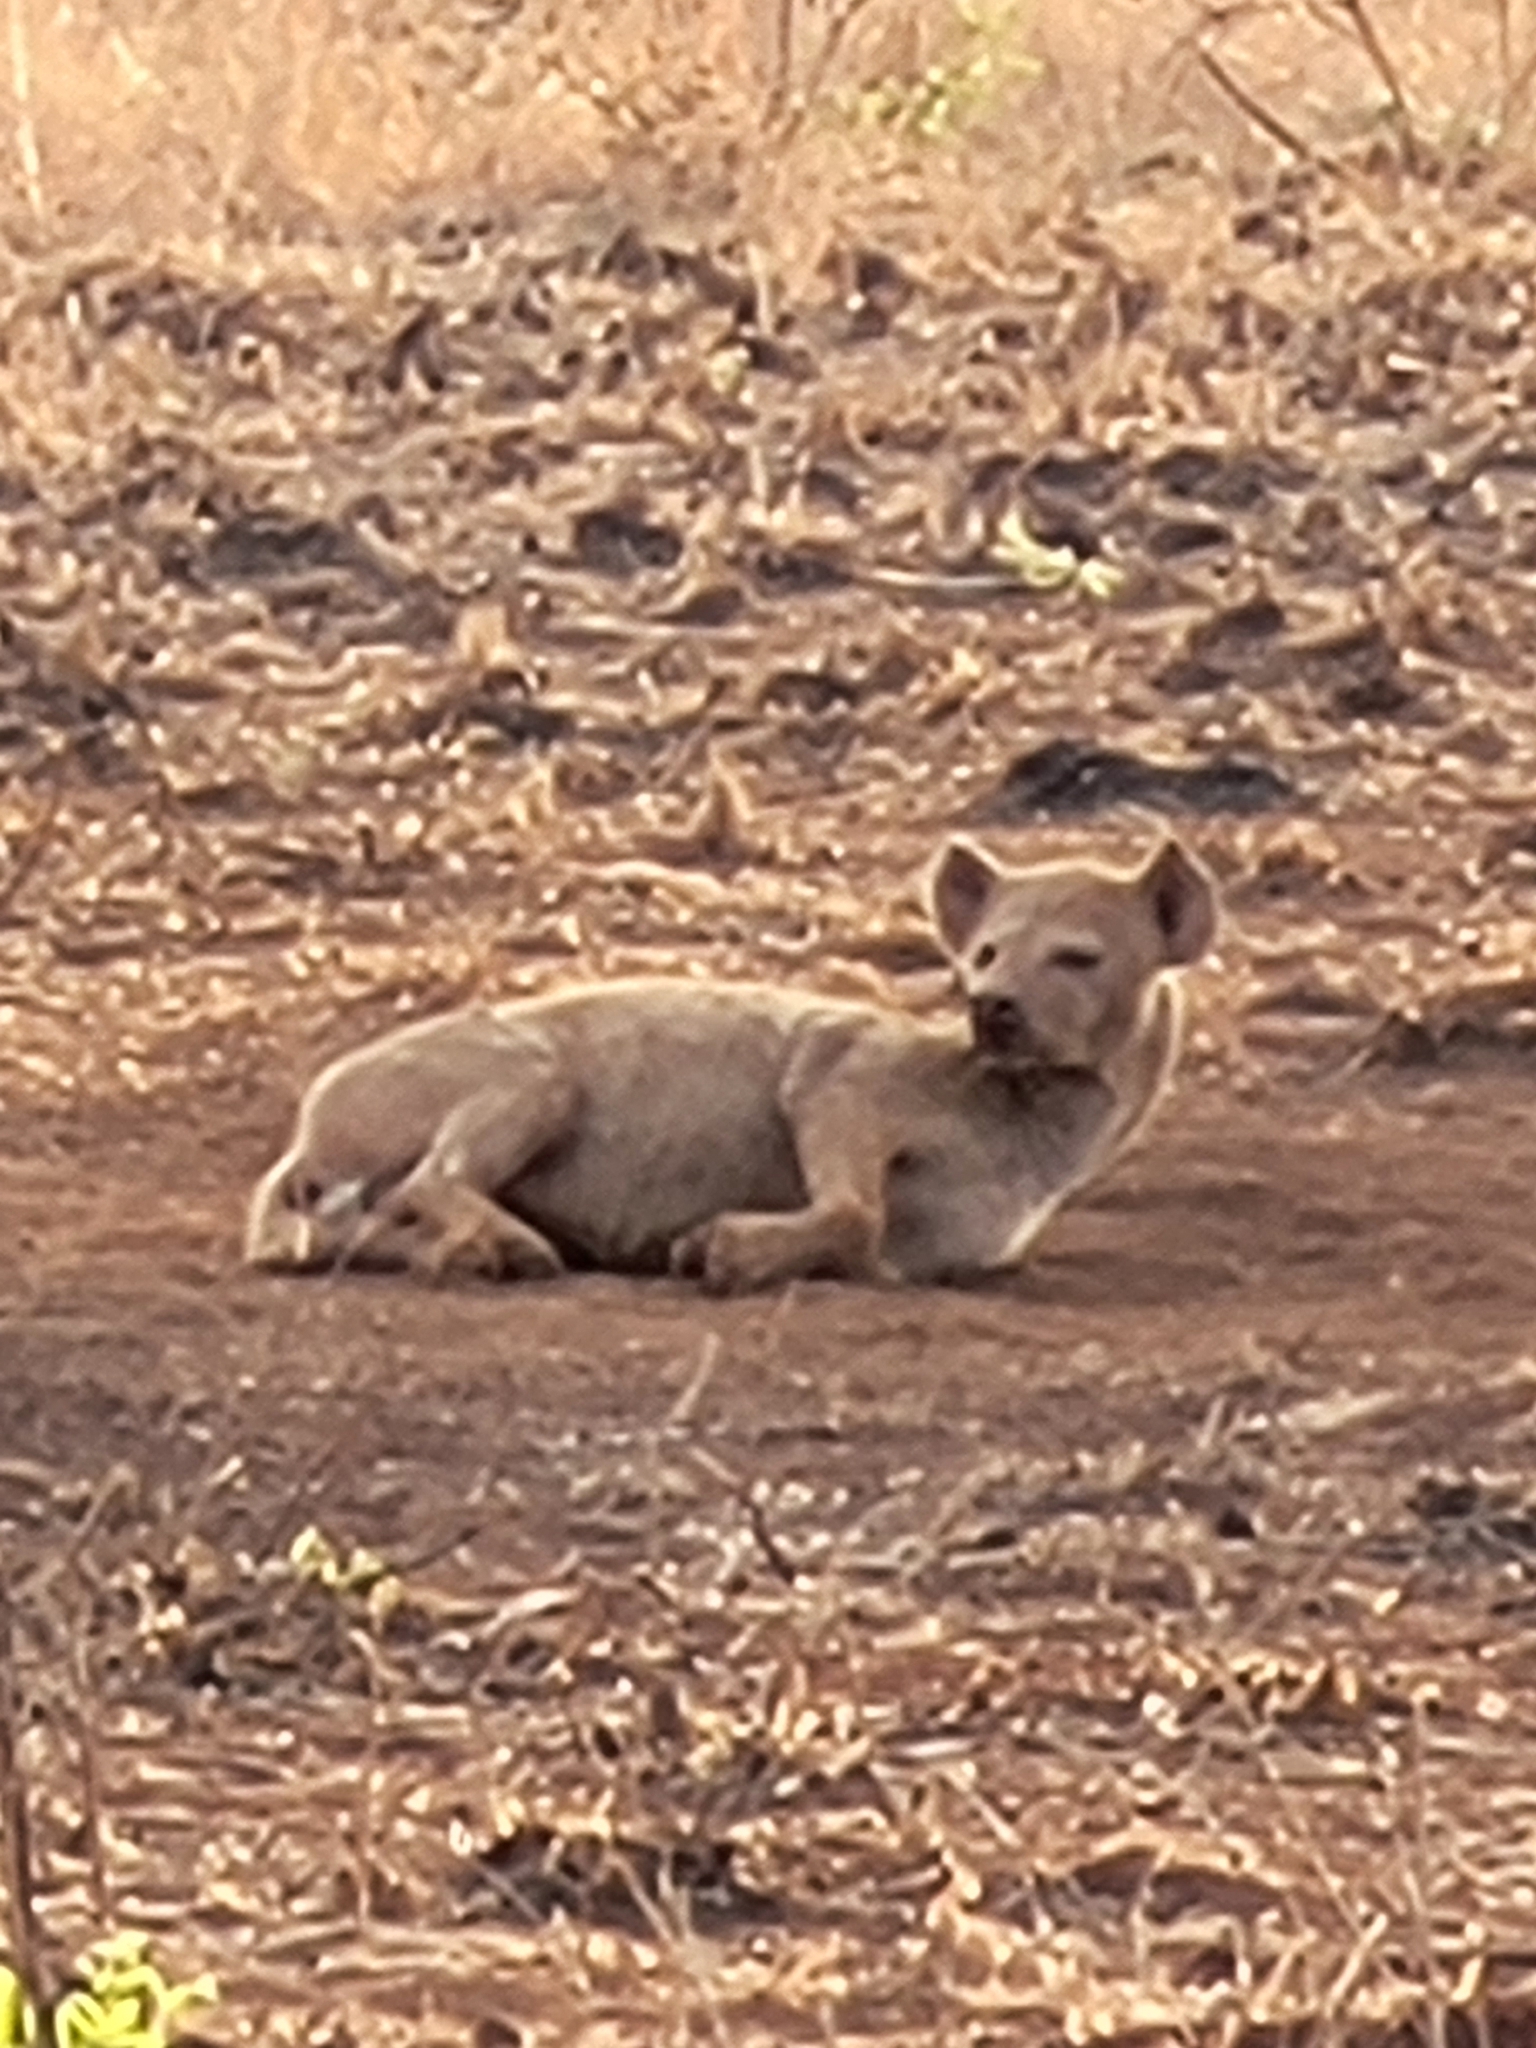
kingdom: Animalia
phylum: Chordata
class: Mammalia
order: Carnivora
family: Hyaenidae
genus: Crocuta
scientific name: Crocuta crocuta
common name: Spotted hyaena
